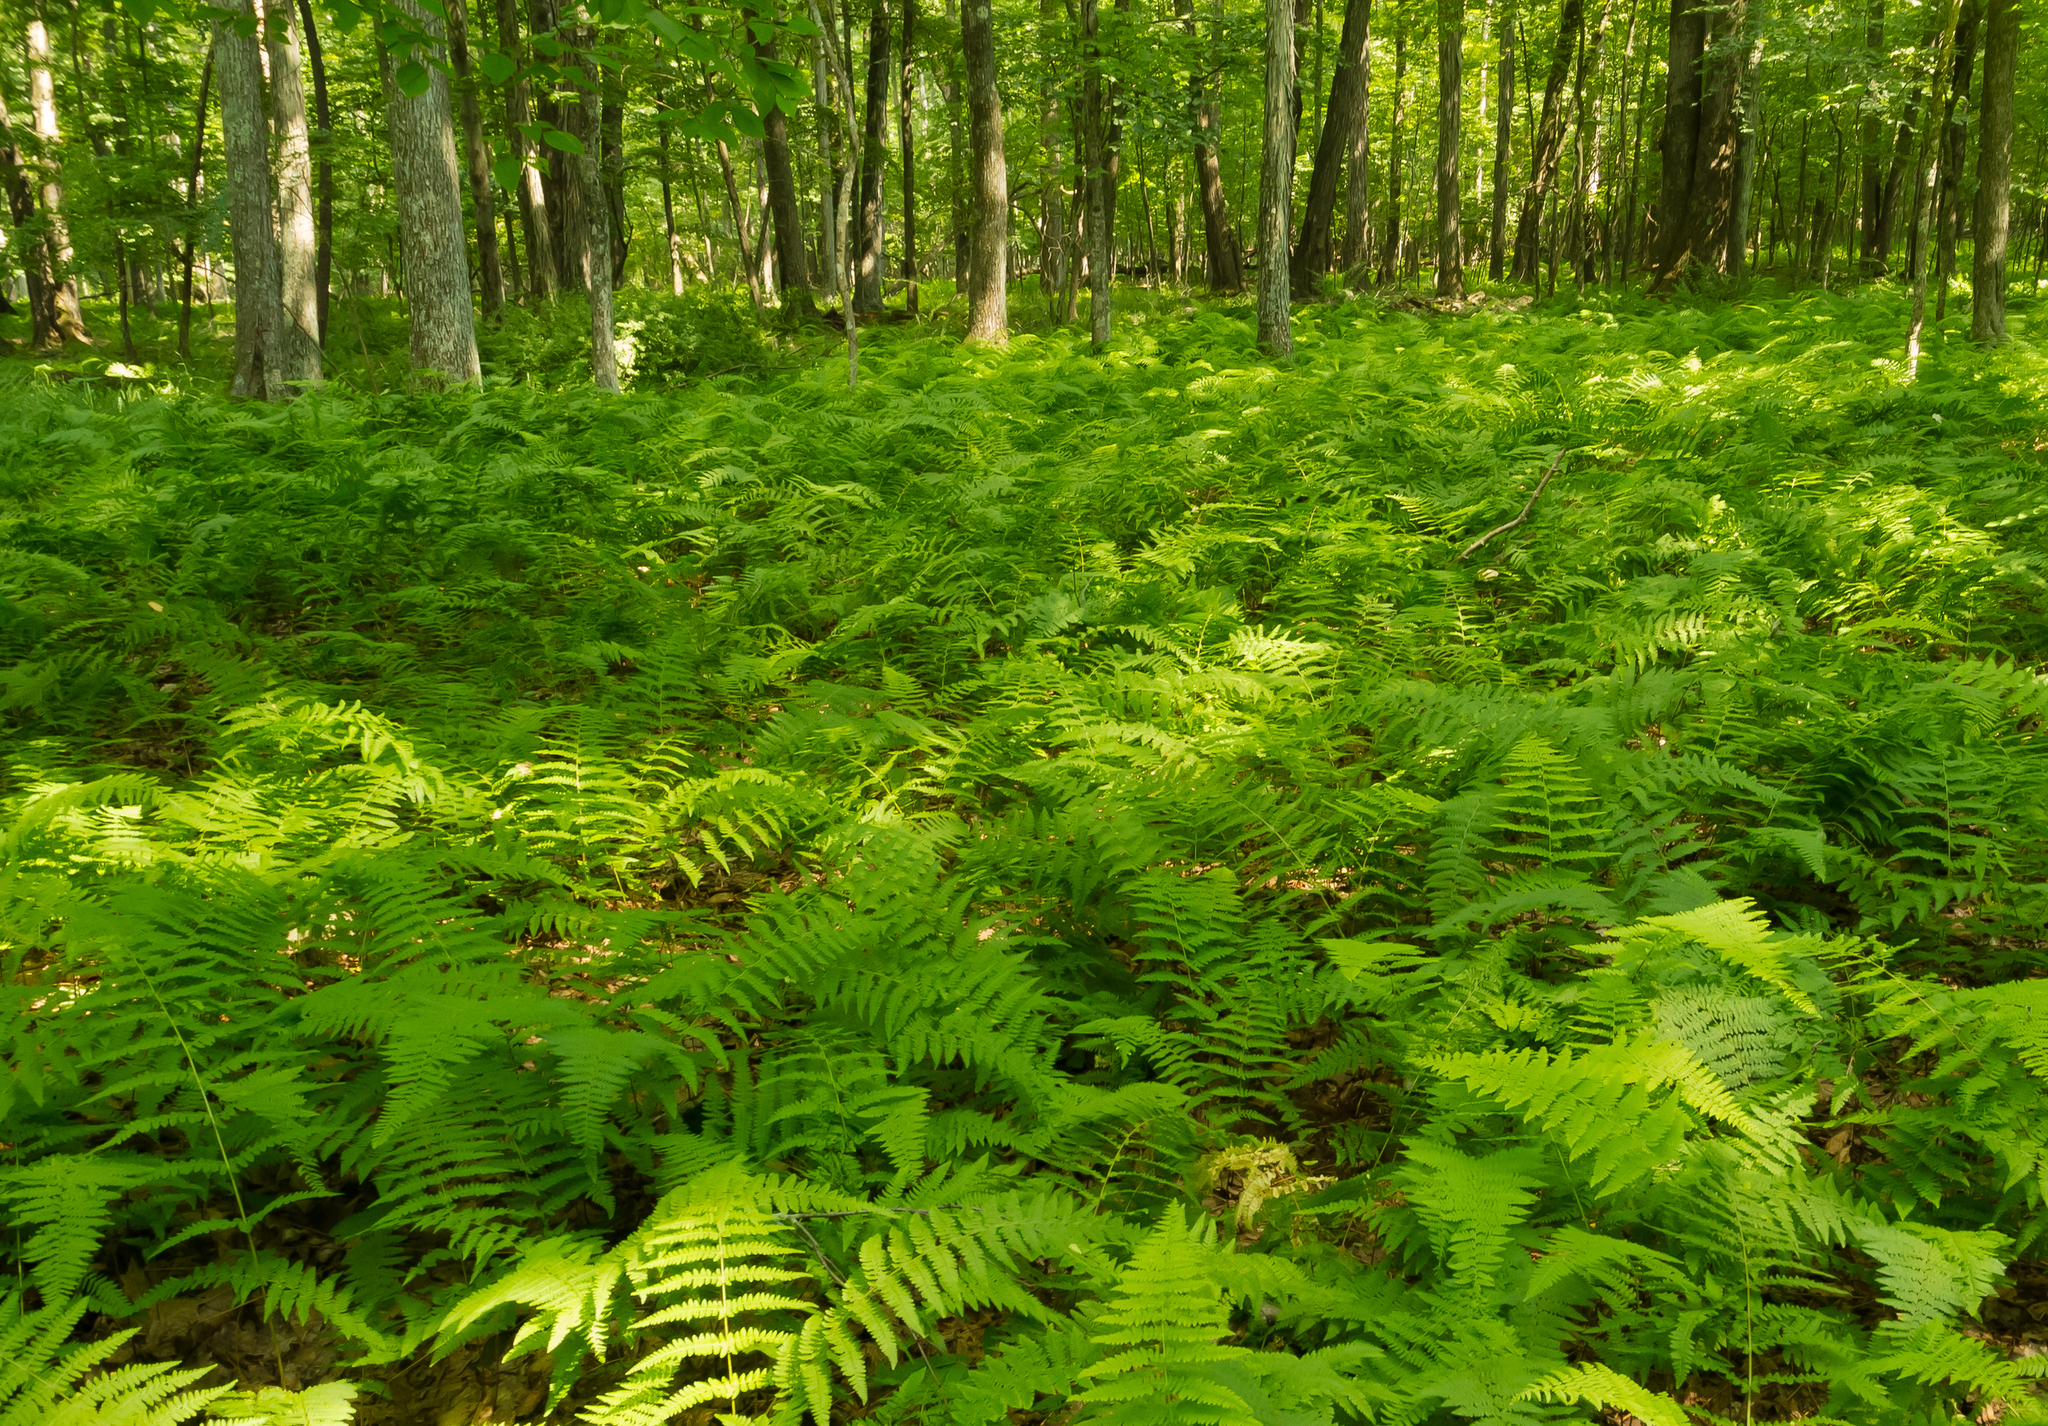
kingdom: Plantae
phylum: Tracheophyta
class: Polypodiopsida
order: Polypodiales
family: Dennstaedtiaceae
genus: Sitobolium
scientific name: Sitobolium punctilobum
